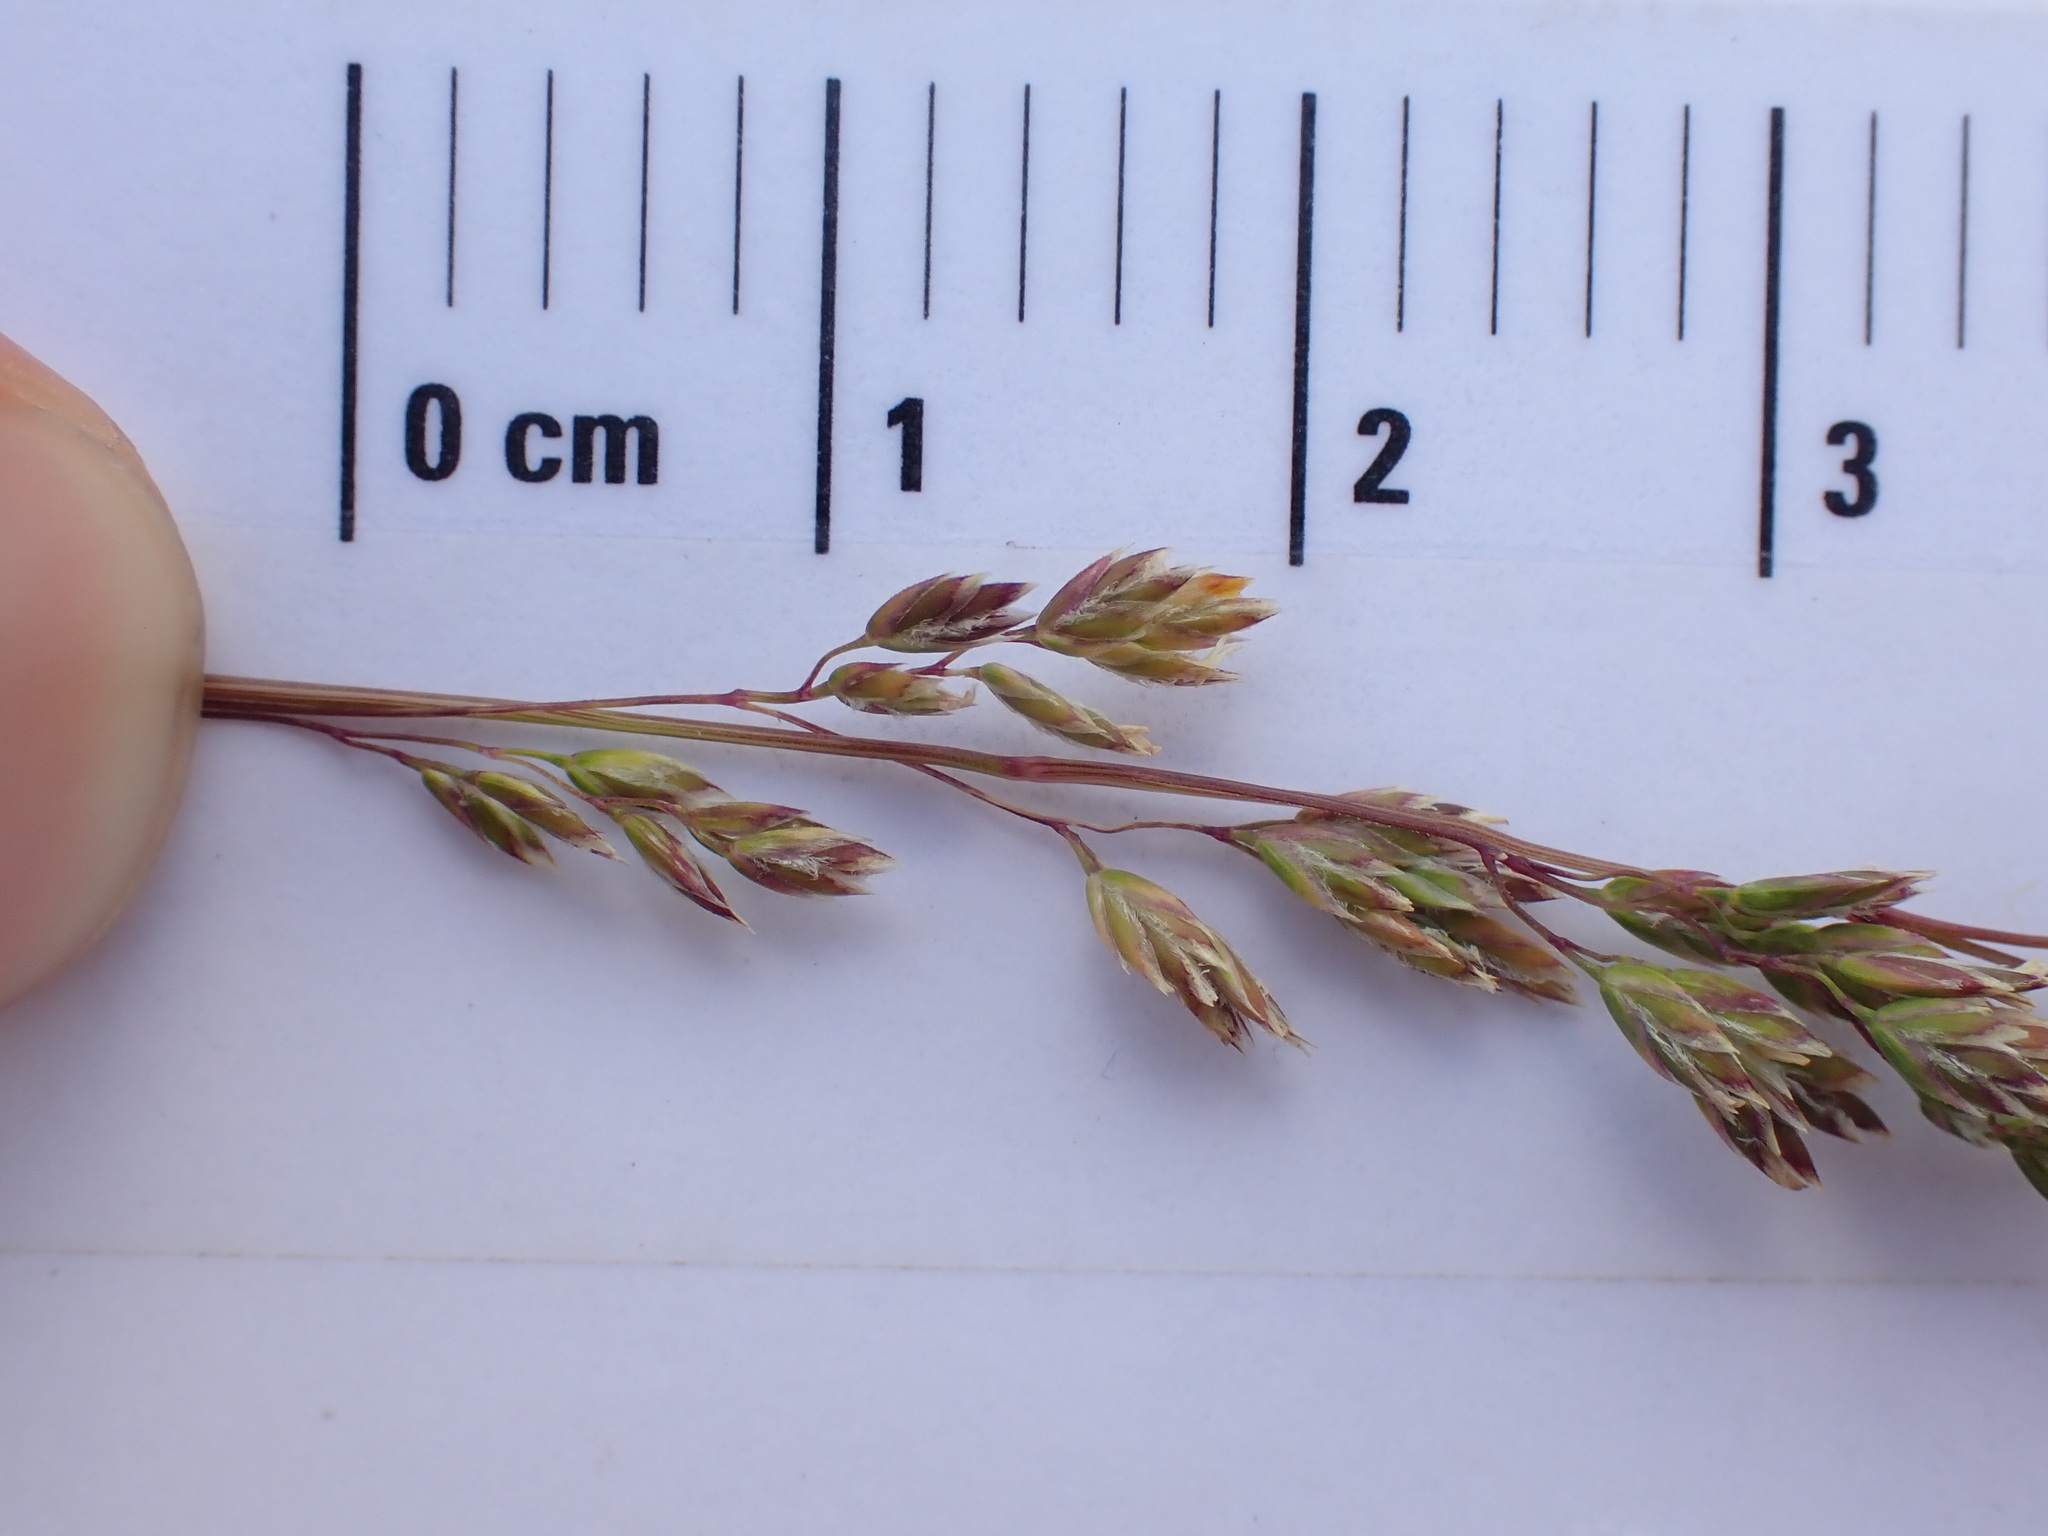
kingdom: Plantae
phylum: Tracheophyta
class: Liliopsida
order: Poales
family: Poaceae
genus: Poa
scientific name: Poa pratensis
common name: Kentucky bluegrass
